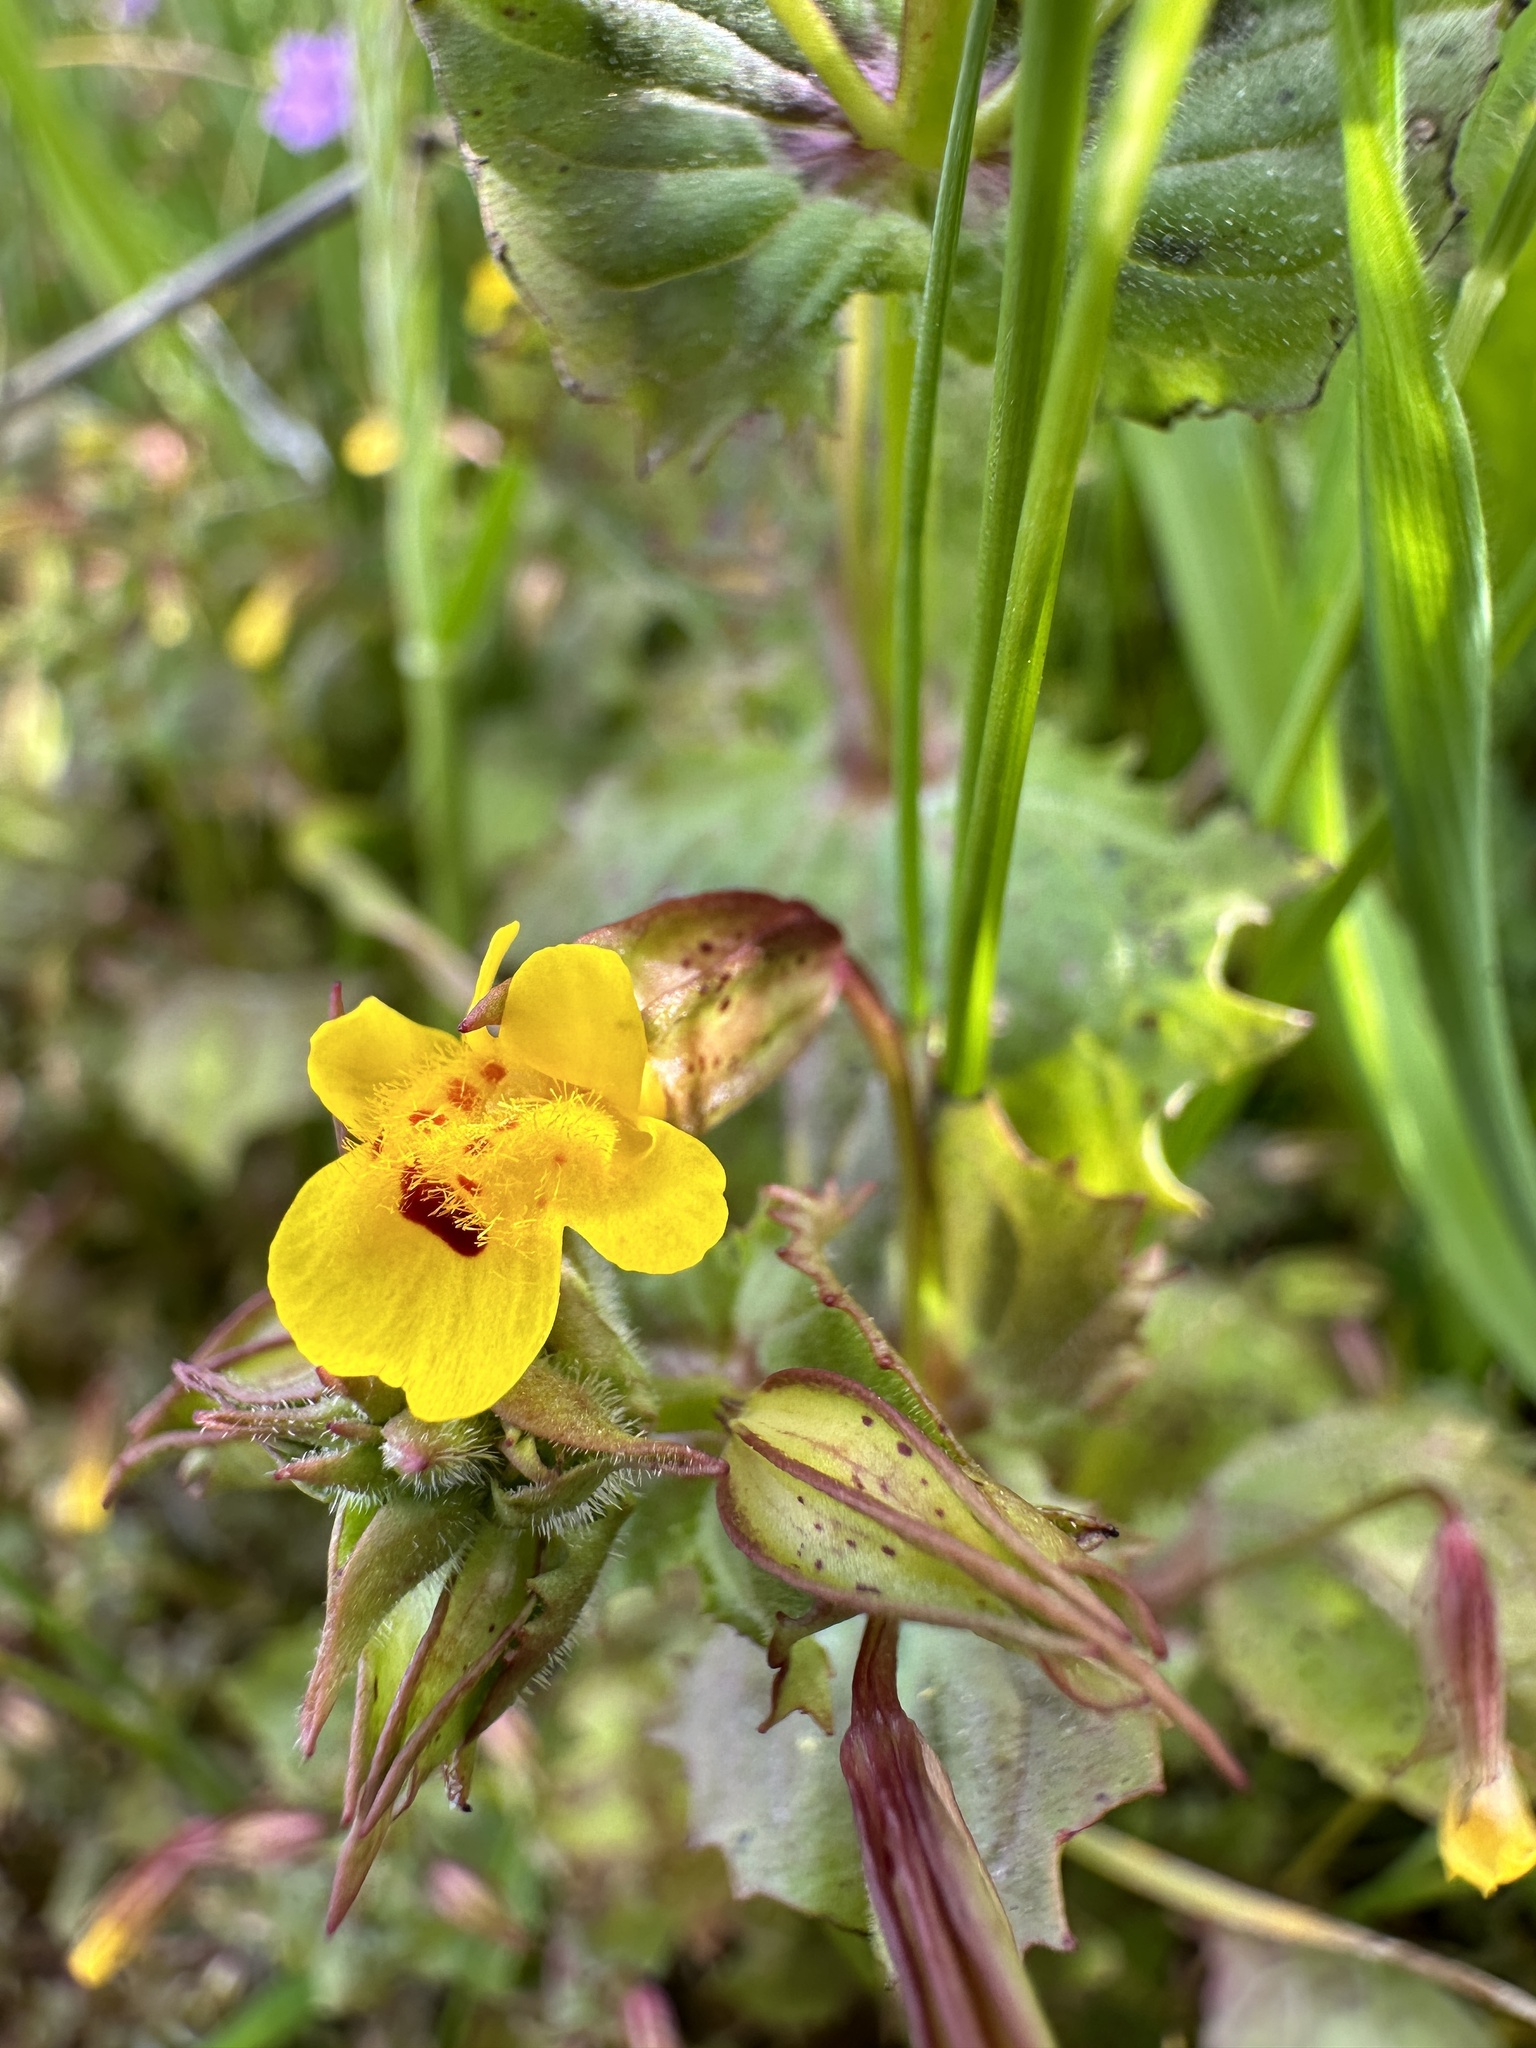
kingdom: Plantae
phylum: Tracheophyta
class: Magnoliopsida
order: Lamiales
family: Phrymaceae
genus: Erythranthe
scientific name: Erythranthe nasuta
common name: Sooke monkeyflower
